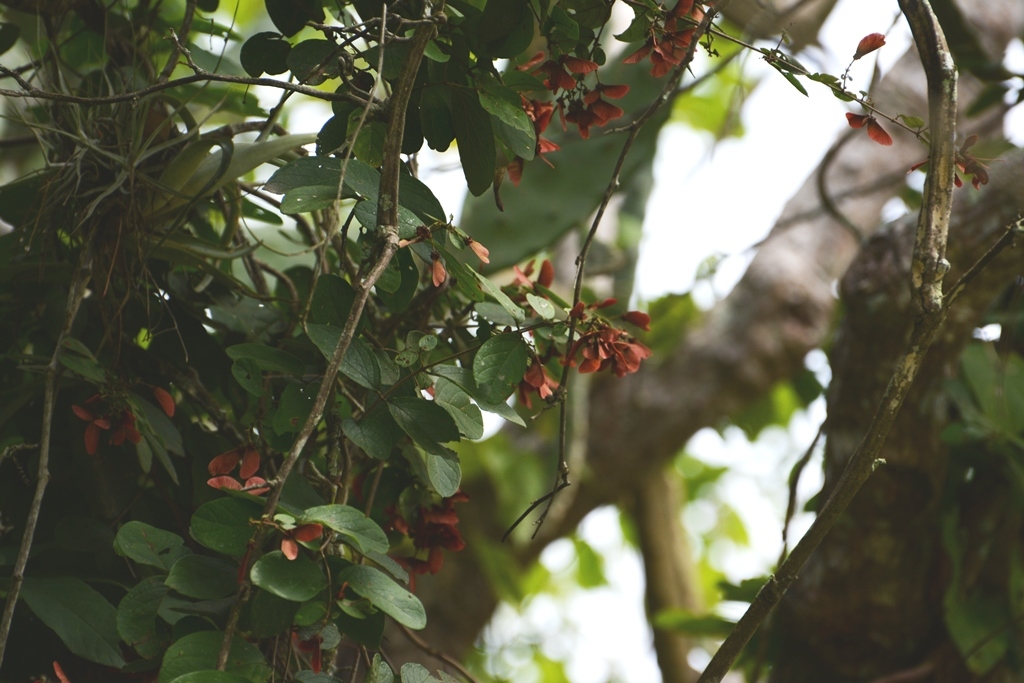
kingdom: Plantae
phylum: Tracheophyta
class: Magnoliopsida
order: Malpighiales
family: Malpighiaceae
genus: Heteropterys
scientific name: Heteropterys brachiata
